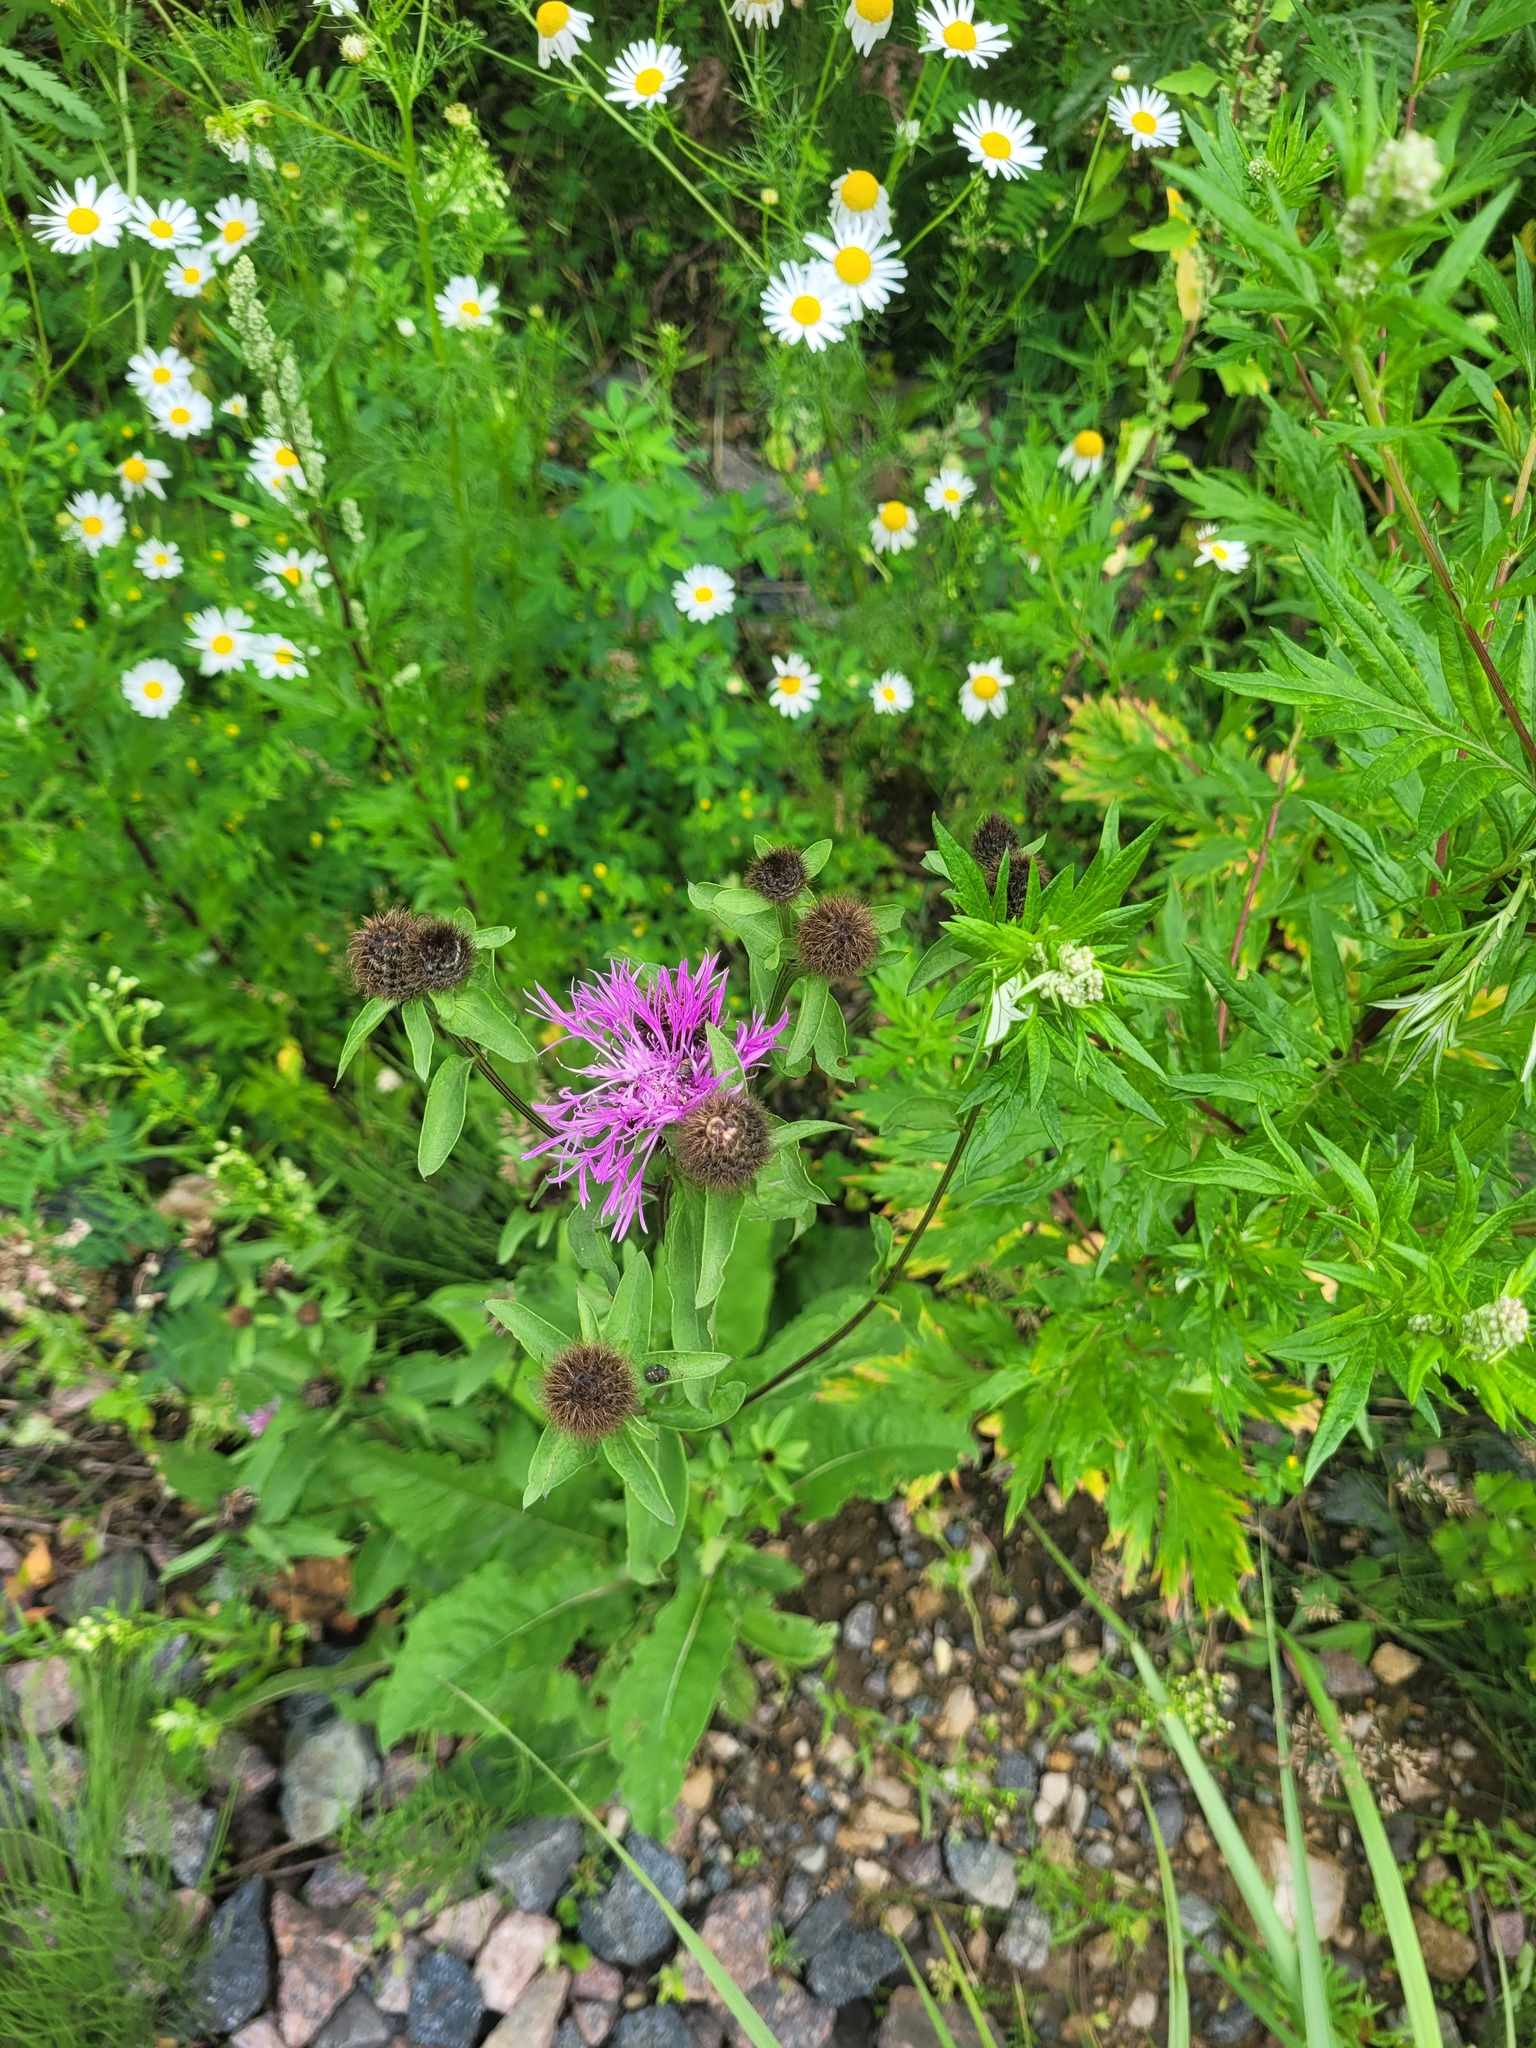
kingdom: Plantae
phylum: Tracheophyta
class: Magnoliopsida
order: Asterales
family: Asteraceae
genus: Centaurea
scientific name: Centaurea pseudophrygia
